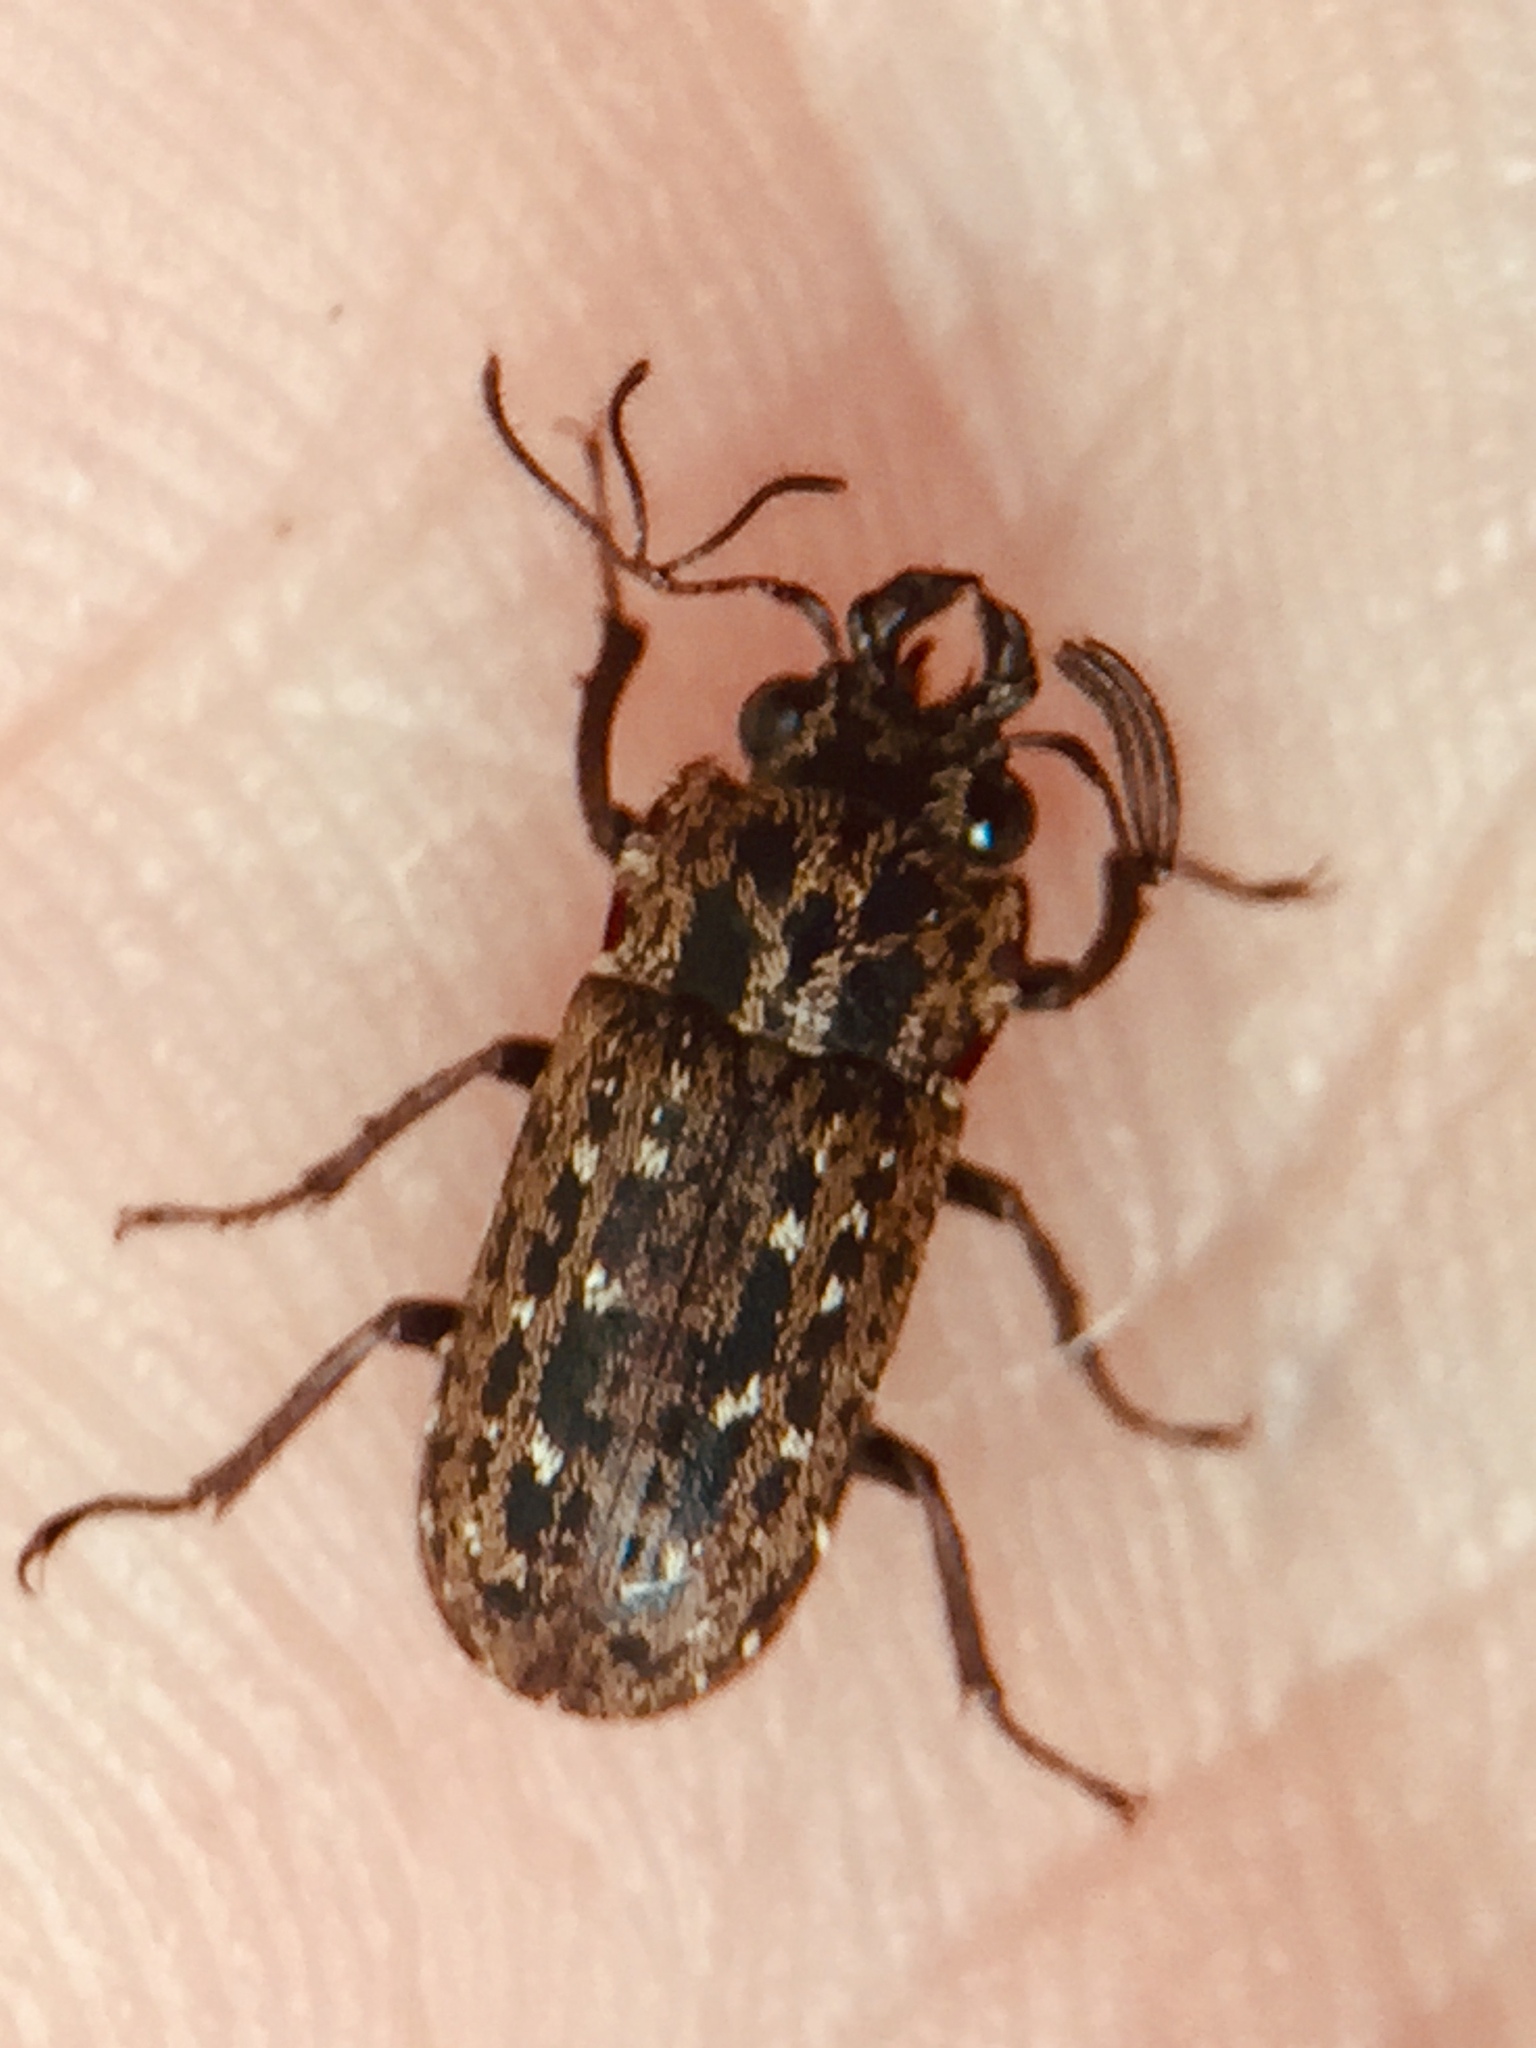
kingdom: Animalia
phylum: Arthropoda
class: Insecta
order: Coleoptera
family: Lucanidae
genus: Mitophyllus
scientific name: Mitophyllus arcuatus
